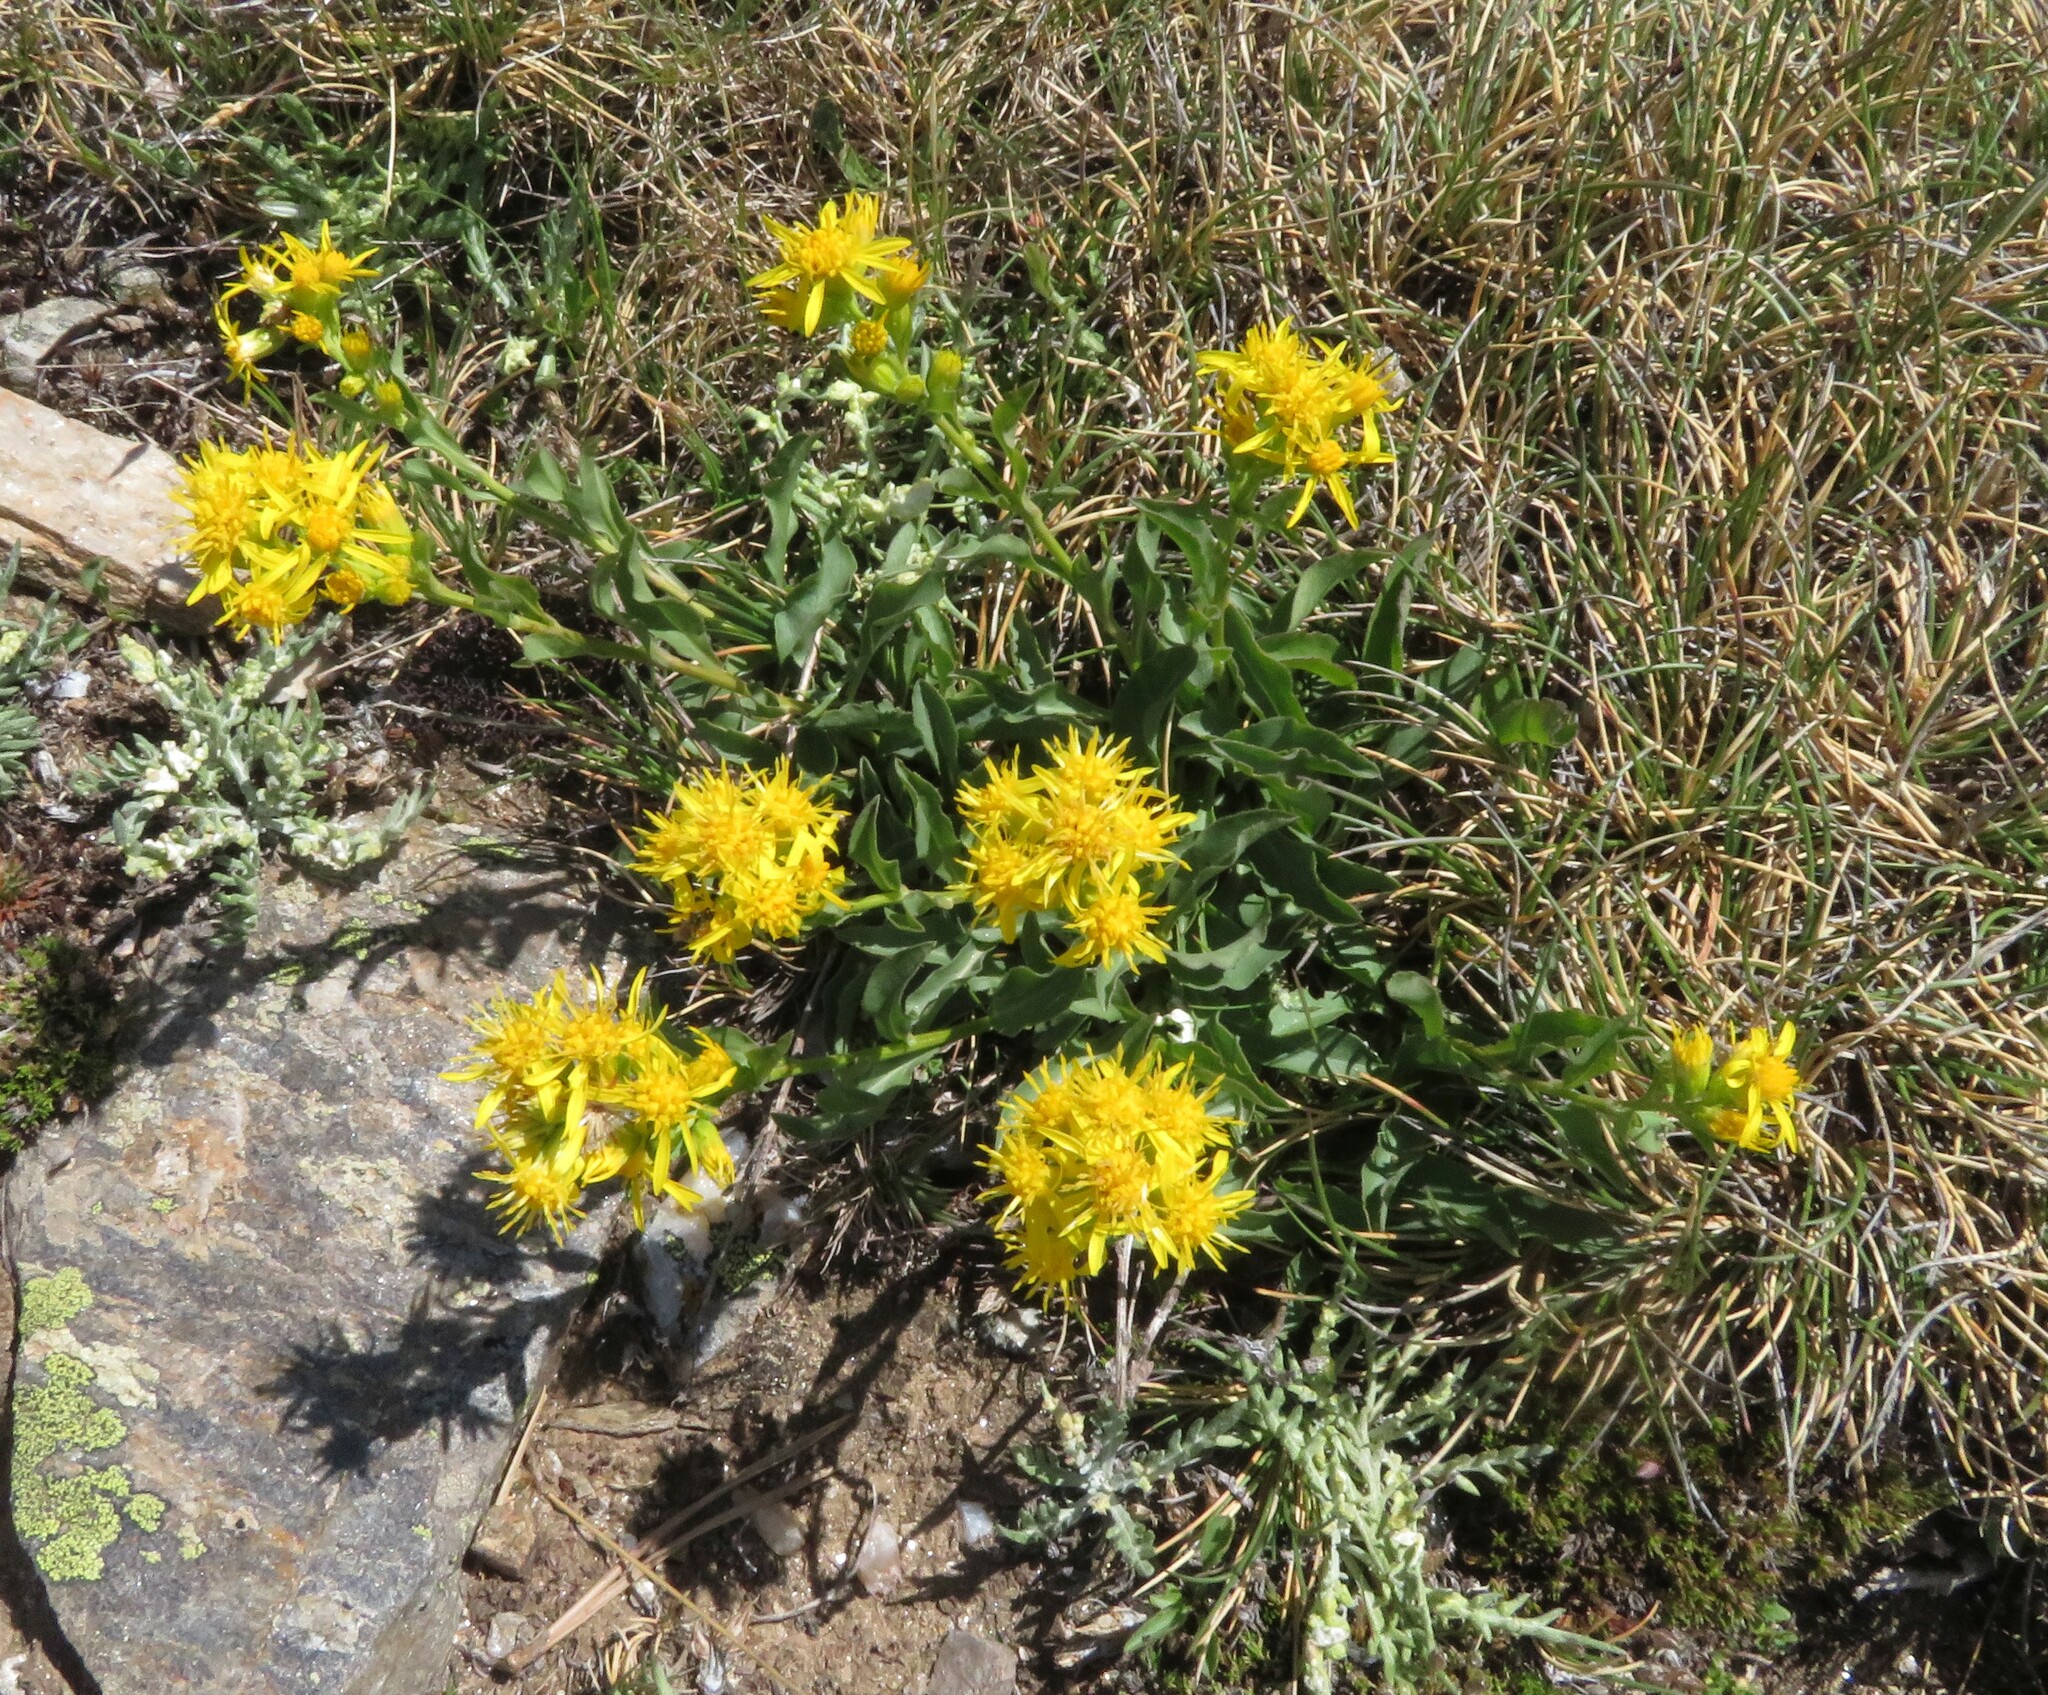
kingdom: Plantae
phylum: Tracheophyta
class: Magnoliopsida
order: Asterales
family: Asteraceae
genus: Solidago
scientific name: Solidago virgaurea
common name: Goldenrod
